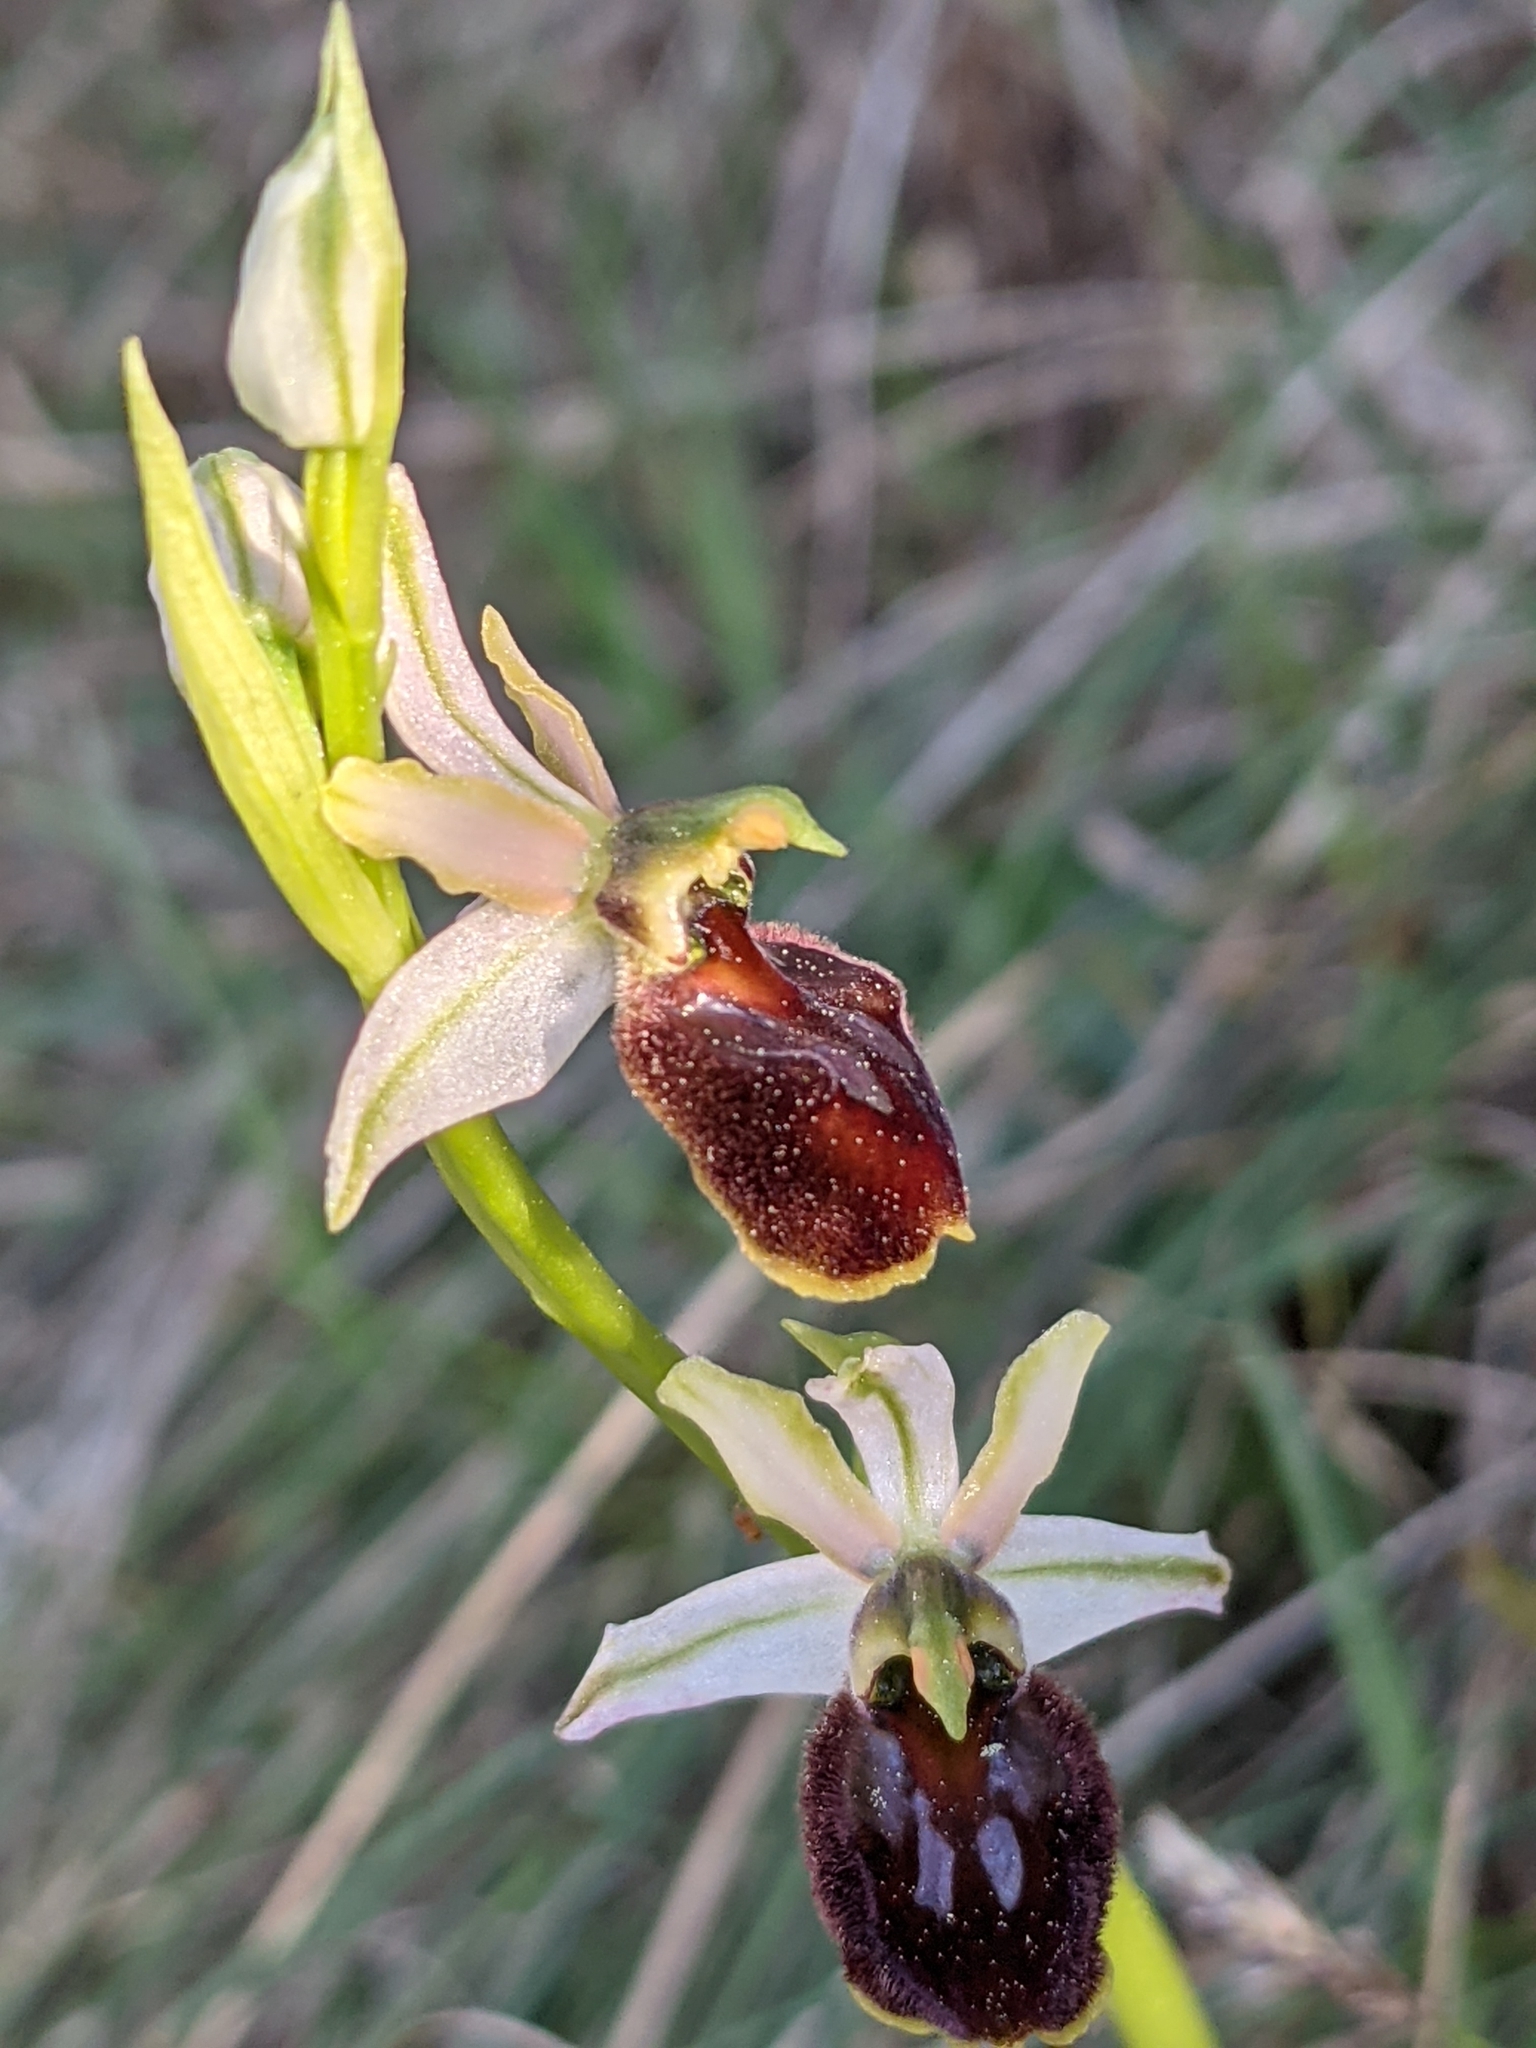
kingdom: Plantae
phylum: Tracheophyta
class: Liliopsida
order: Asparagales
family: Orchidaceae
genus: Ophrys
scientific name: Ophrys sphegodes
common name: Early spider-orchid
